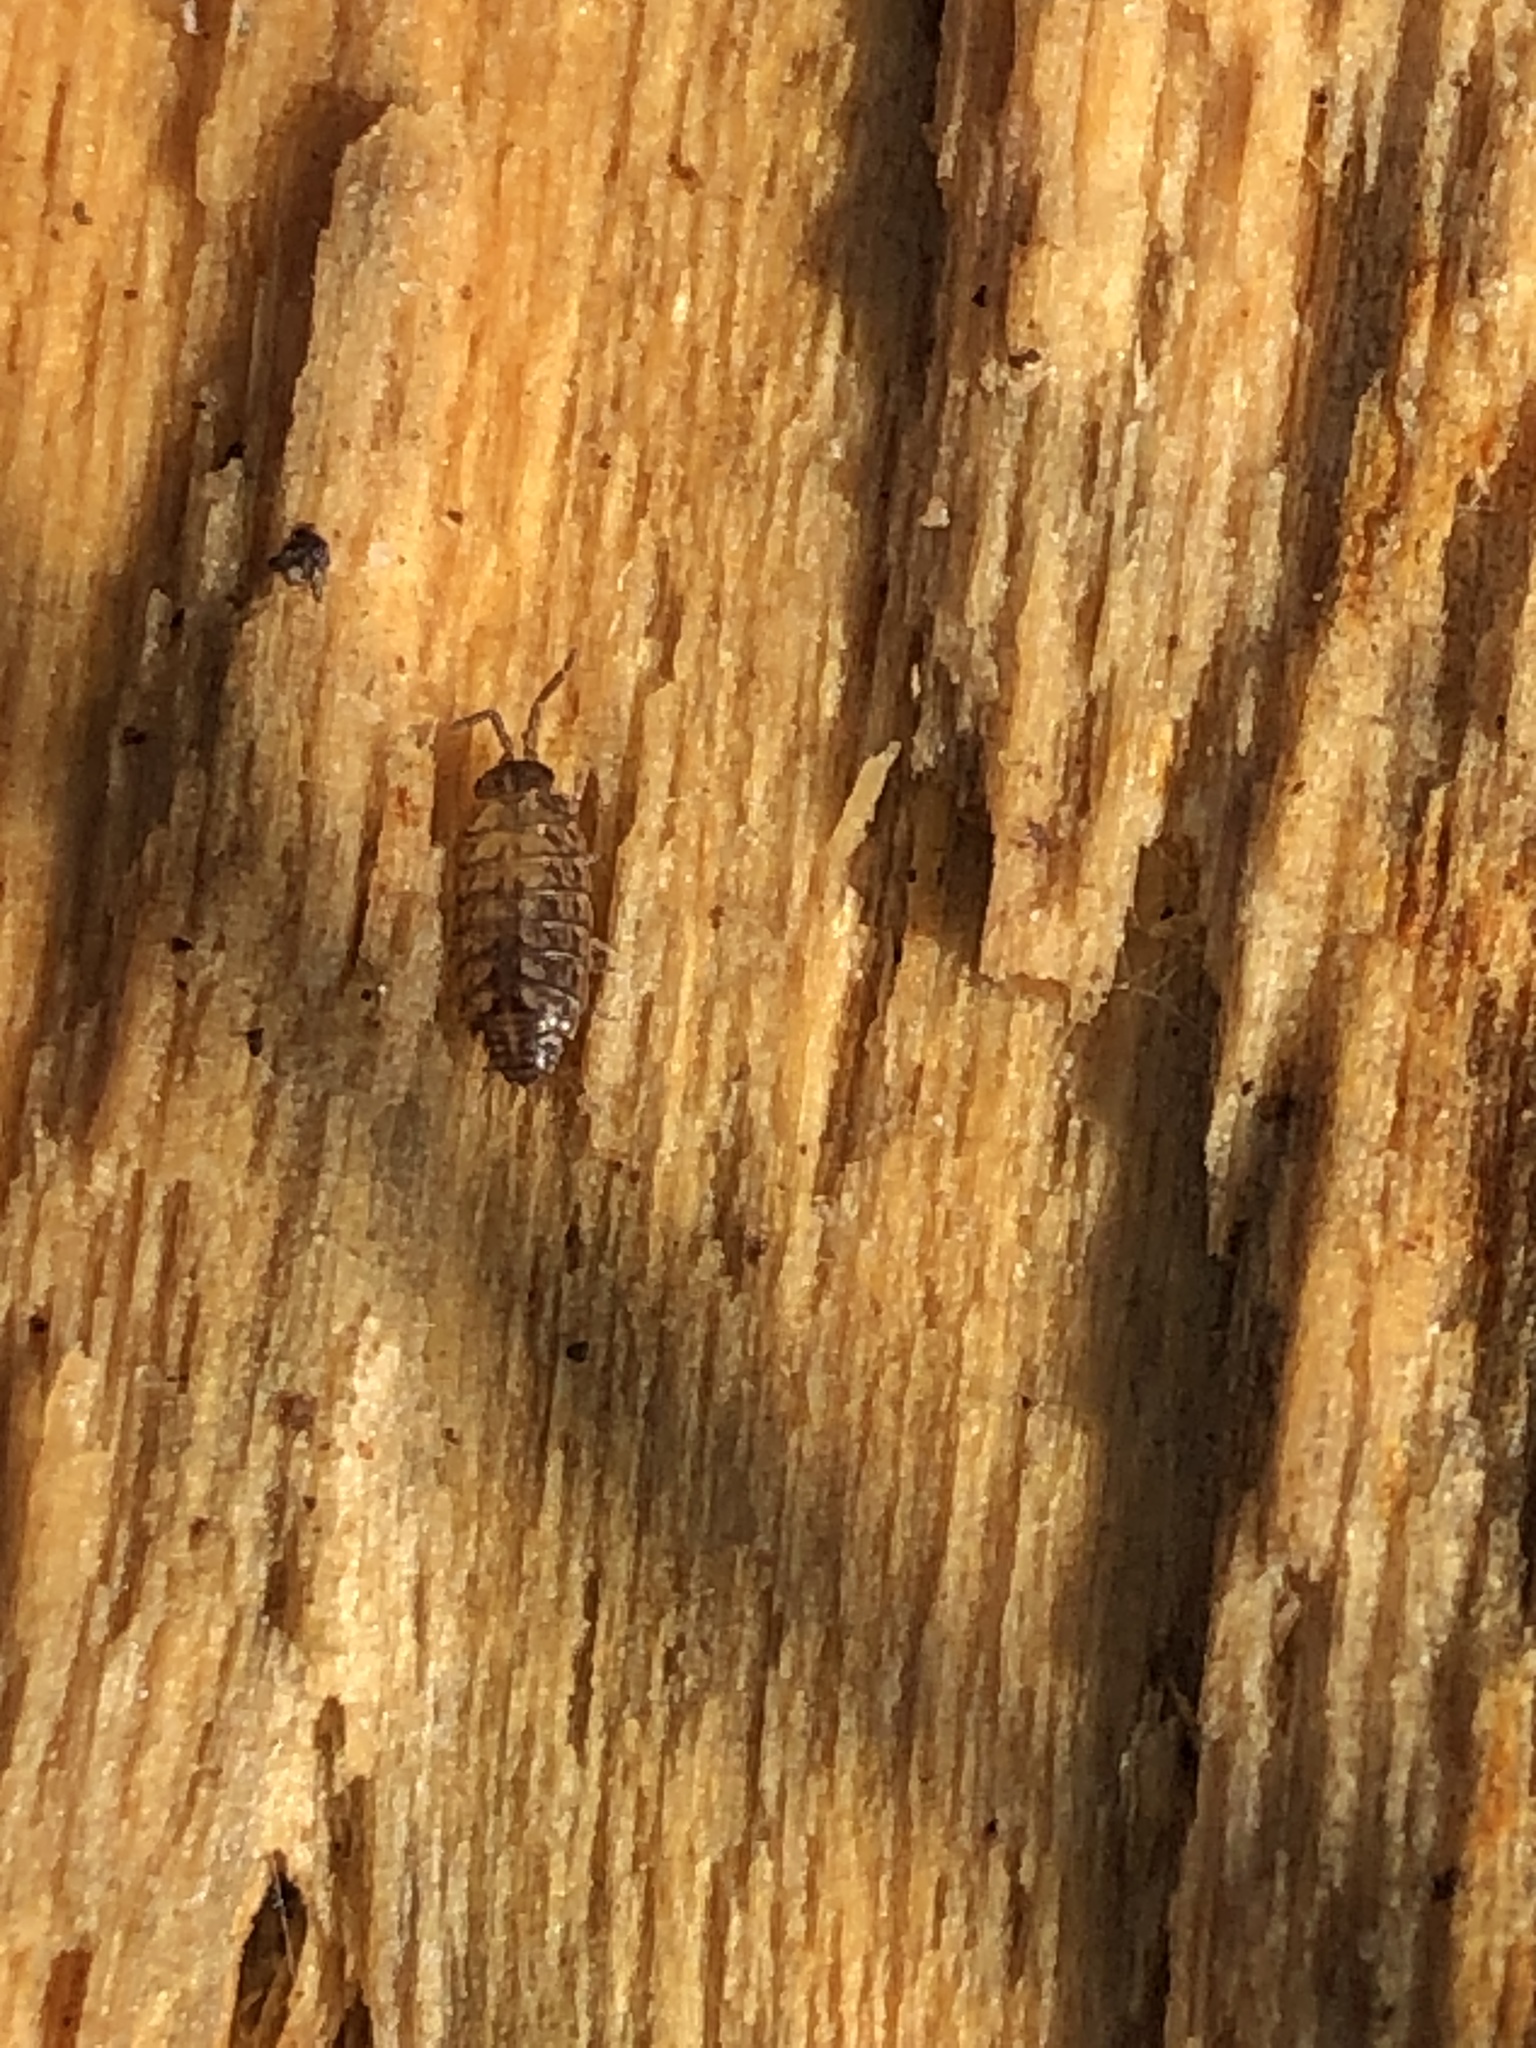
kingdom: Animalia
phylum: Arthropoda
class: Malacostraca
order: Isopoda
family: Philosciidae
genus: Philoscia
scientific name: Philoscia muscorum
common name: Common striped woodlouse
